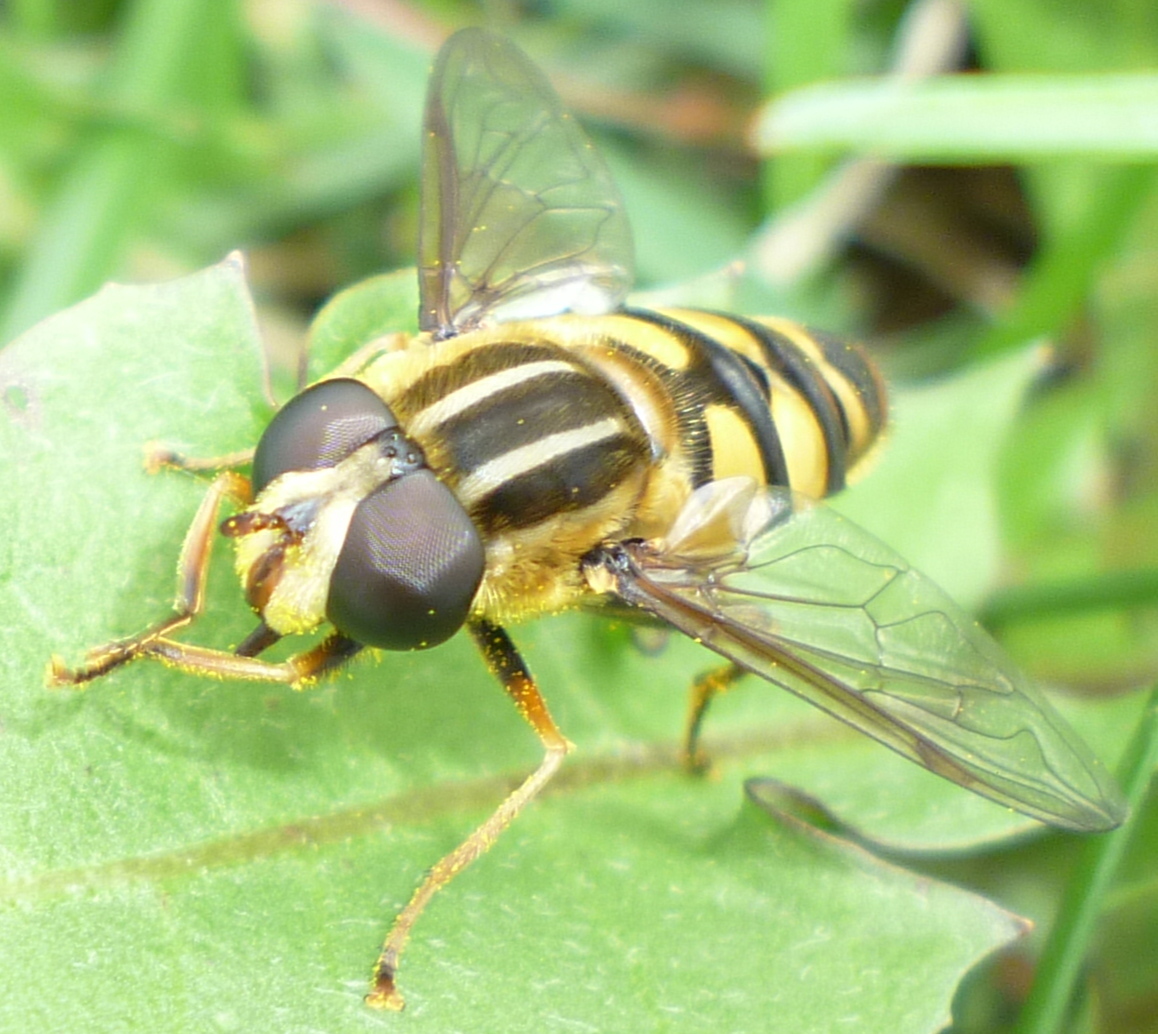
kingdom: Animalia
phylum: Arthropoda
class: Insecta
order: Diptera
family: Syrphidae
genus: Helophilus
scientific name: Helophilus fasciatus
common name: Narrow-headed marsh fly
